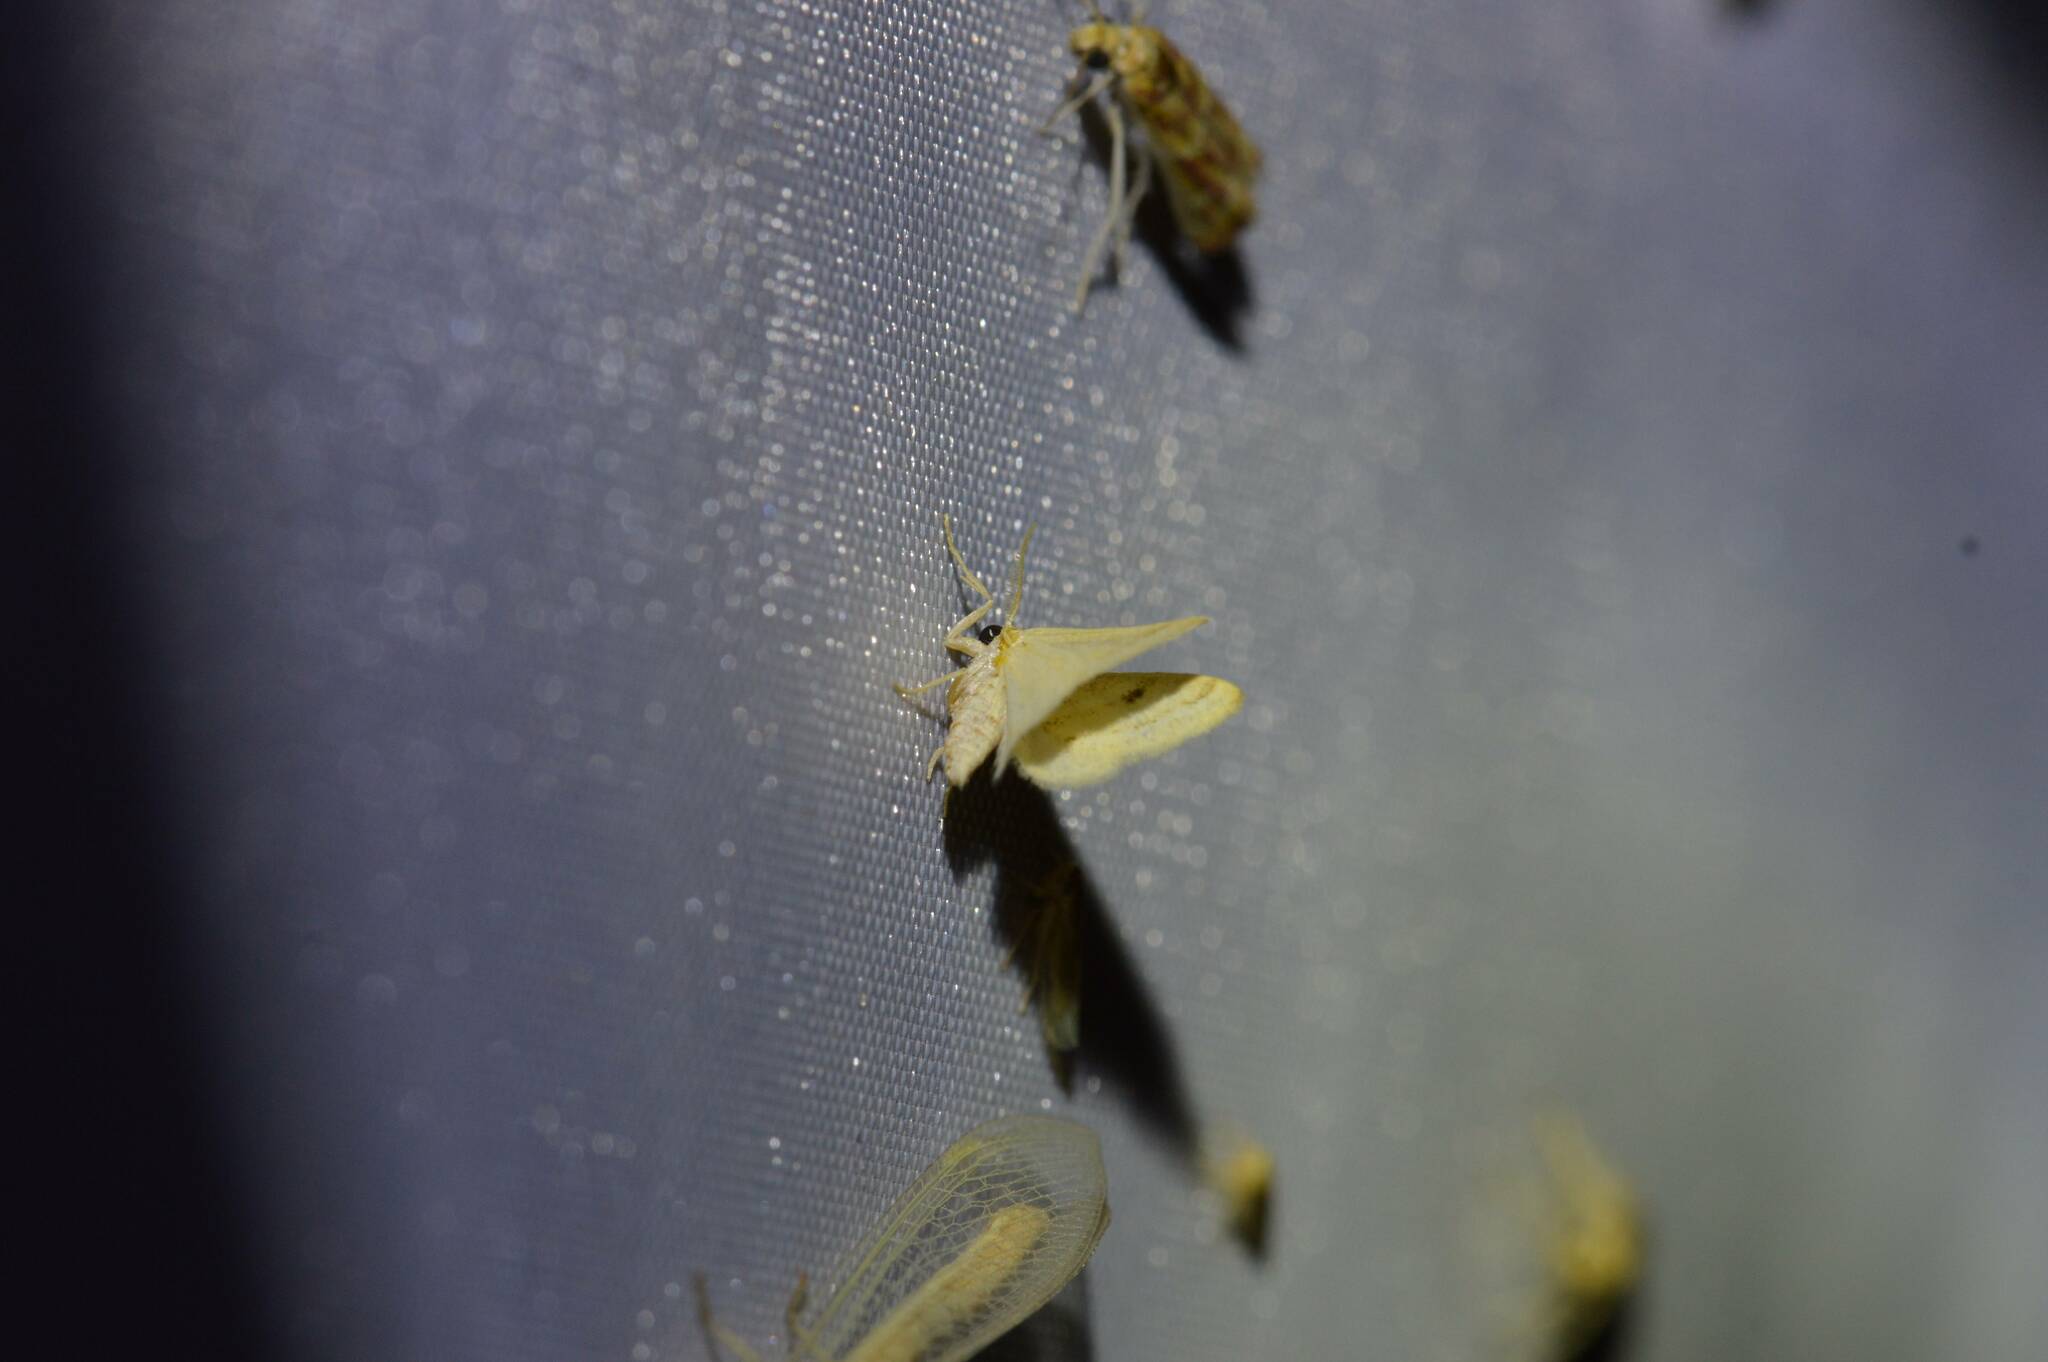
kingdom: Animalia
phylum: Arthropoda
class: Insecta
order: Lepidoptera
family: Geometridae
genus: Acidaliastis
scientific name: Acidaliastis micra
